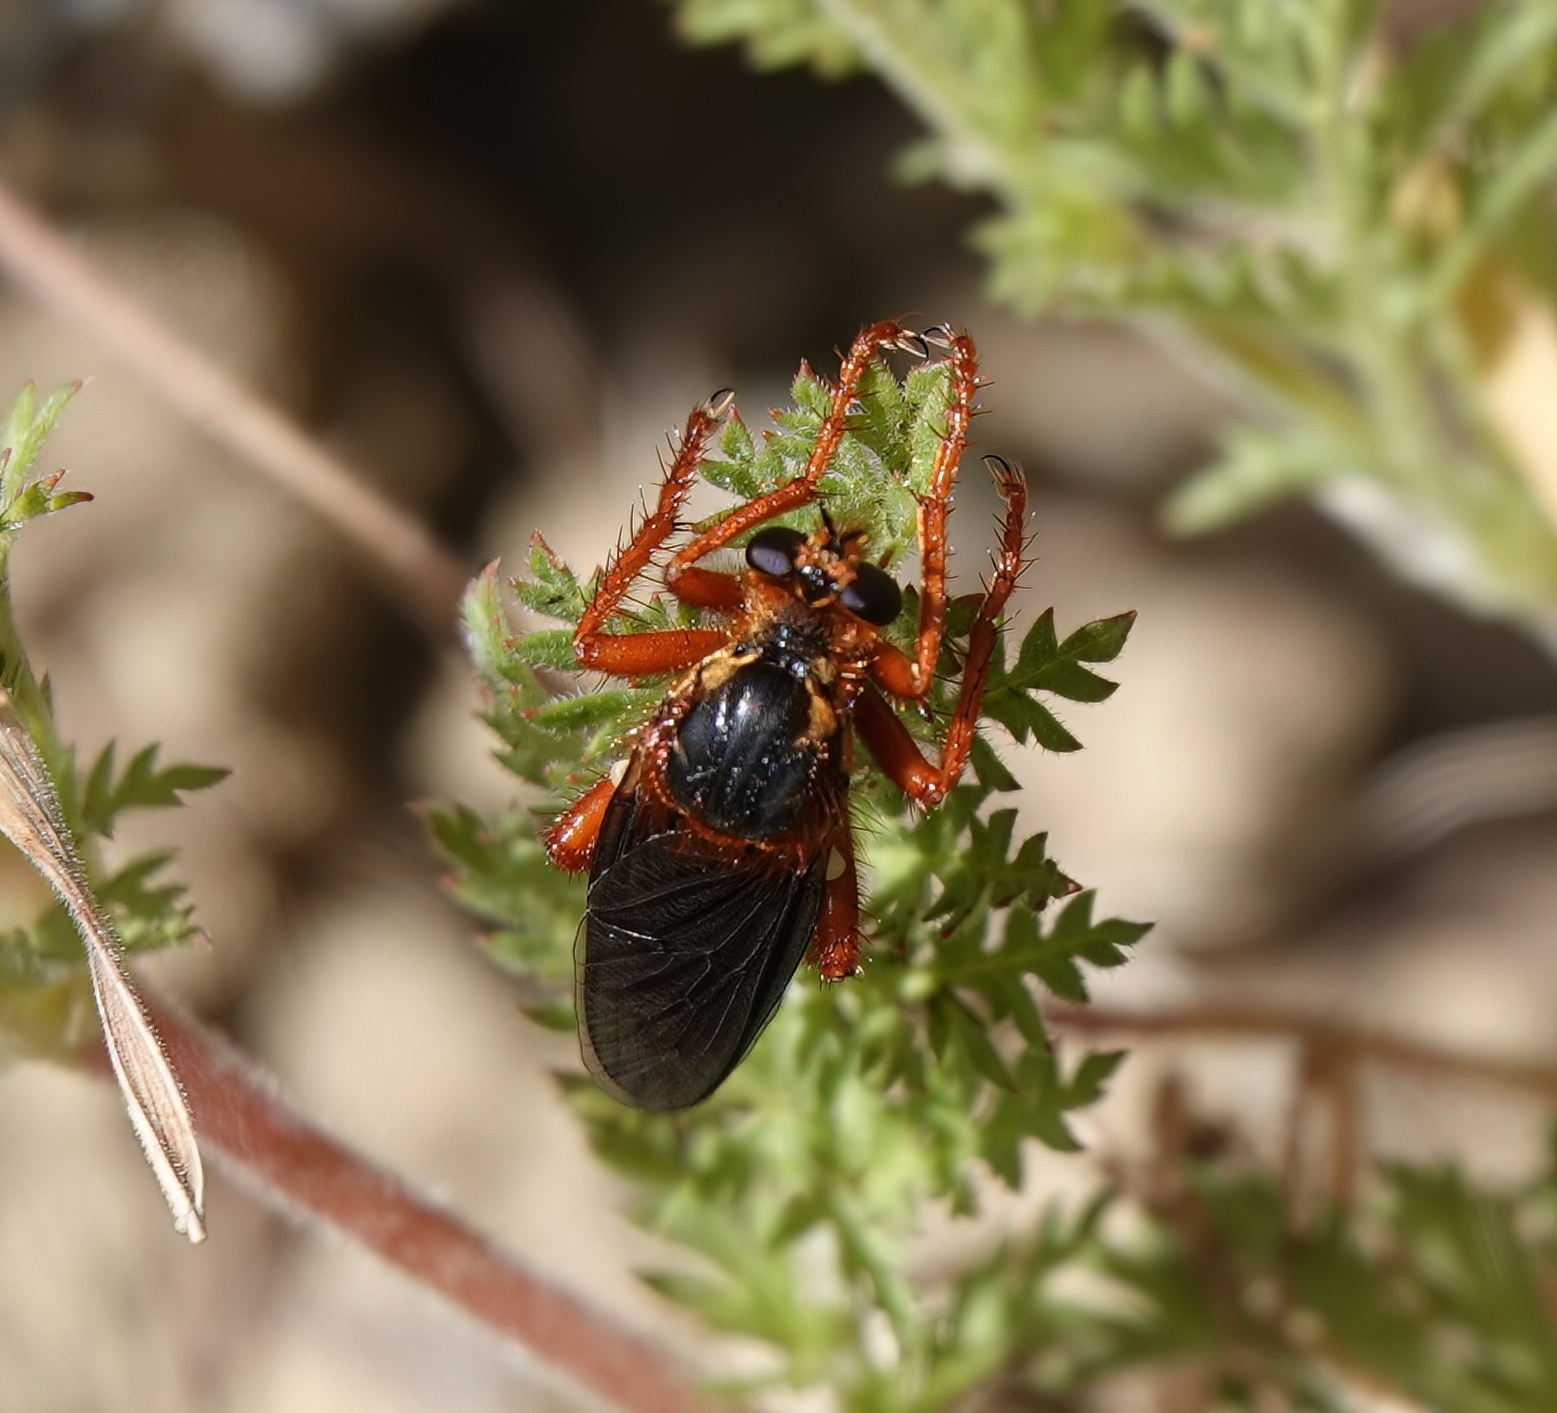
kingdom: Animalia
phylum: Arthropoda
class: Insecta
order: Diptera
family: Asilidae
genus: Callinicus
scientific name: Callinicus calcaneus
